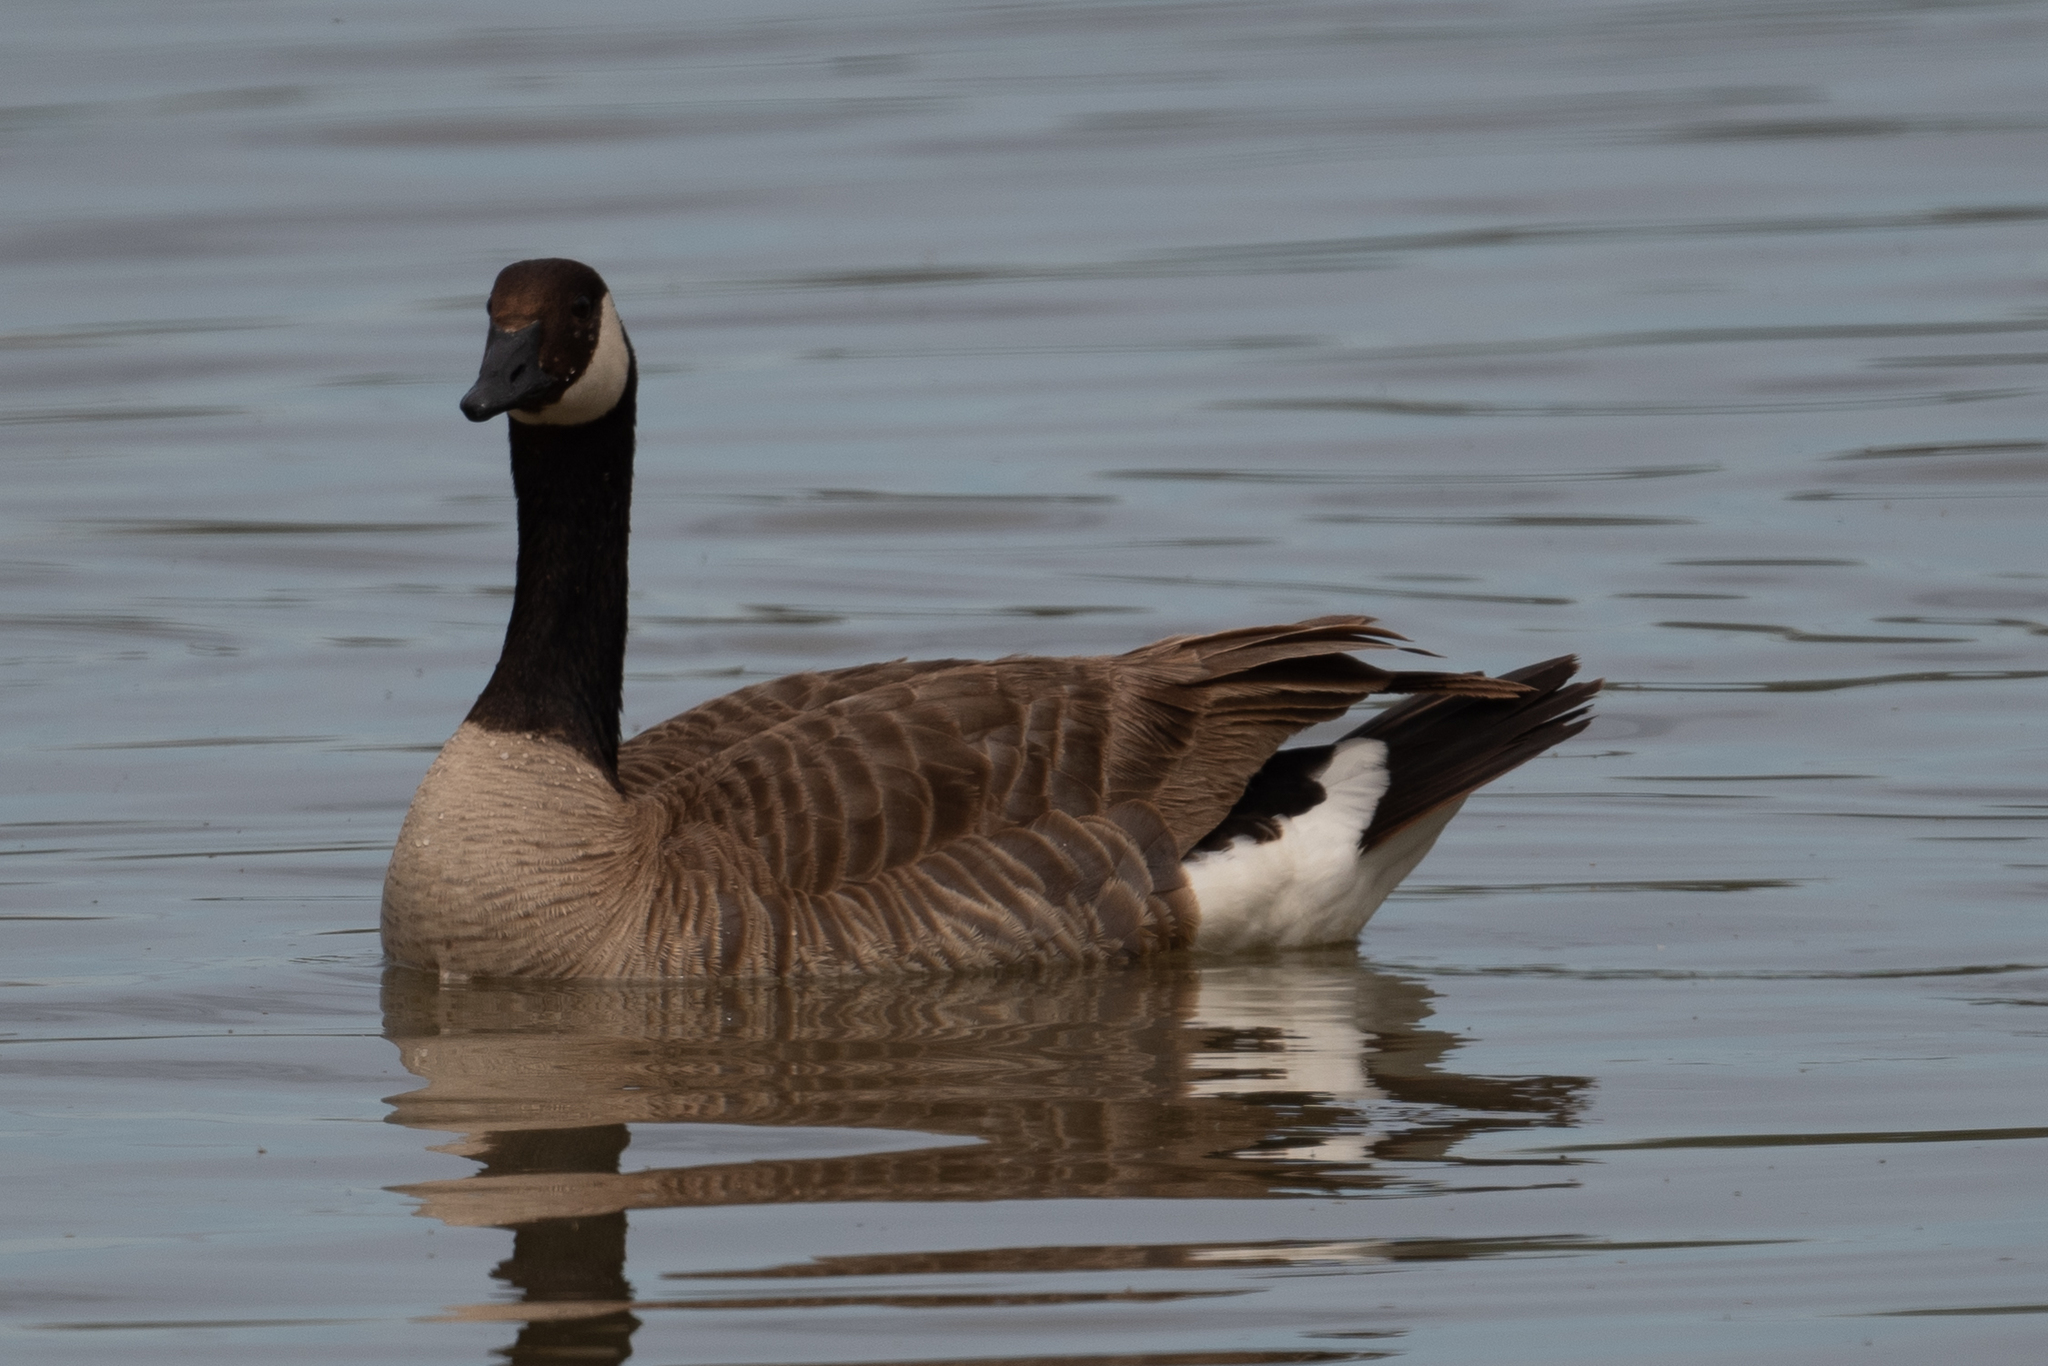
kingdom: Animalia
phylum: Chordata
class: Aves
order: Anseriformes
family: Anatidae
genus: Branta
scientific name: Branta canadensis
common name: Canada goose
